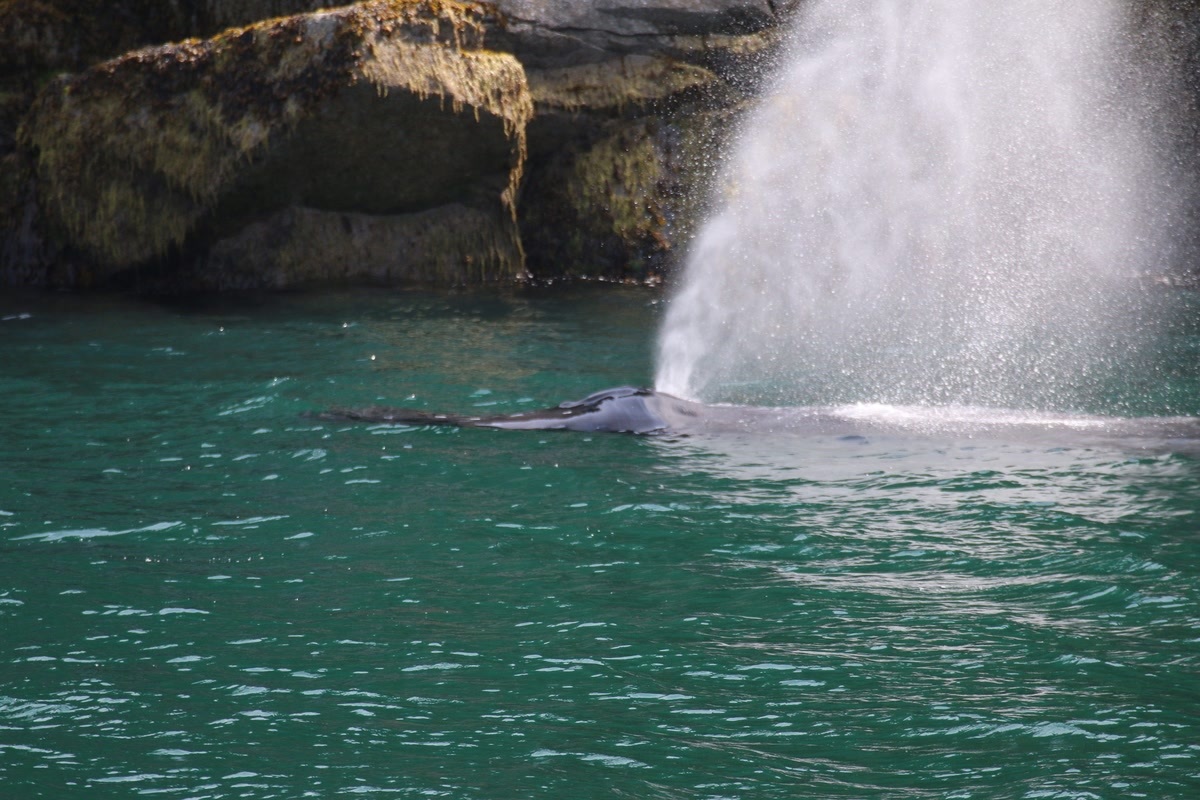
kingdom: Animalia
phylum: Chordata
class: Mammalia
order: Cetacea
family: Balaenopteridae
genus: Megaptera
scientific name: Megaptera novaeangliae
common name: Humpback whale
